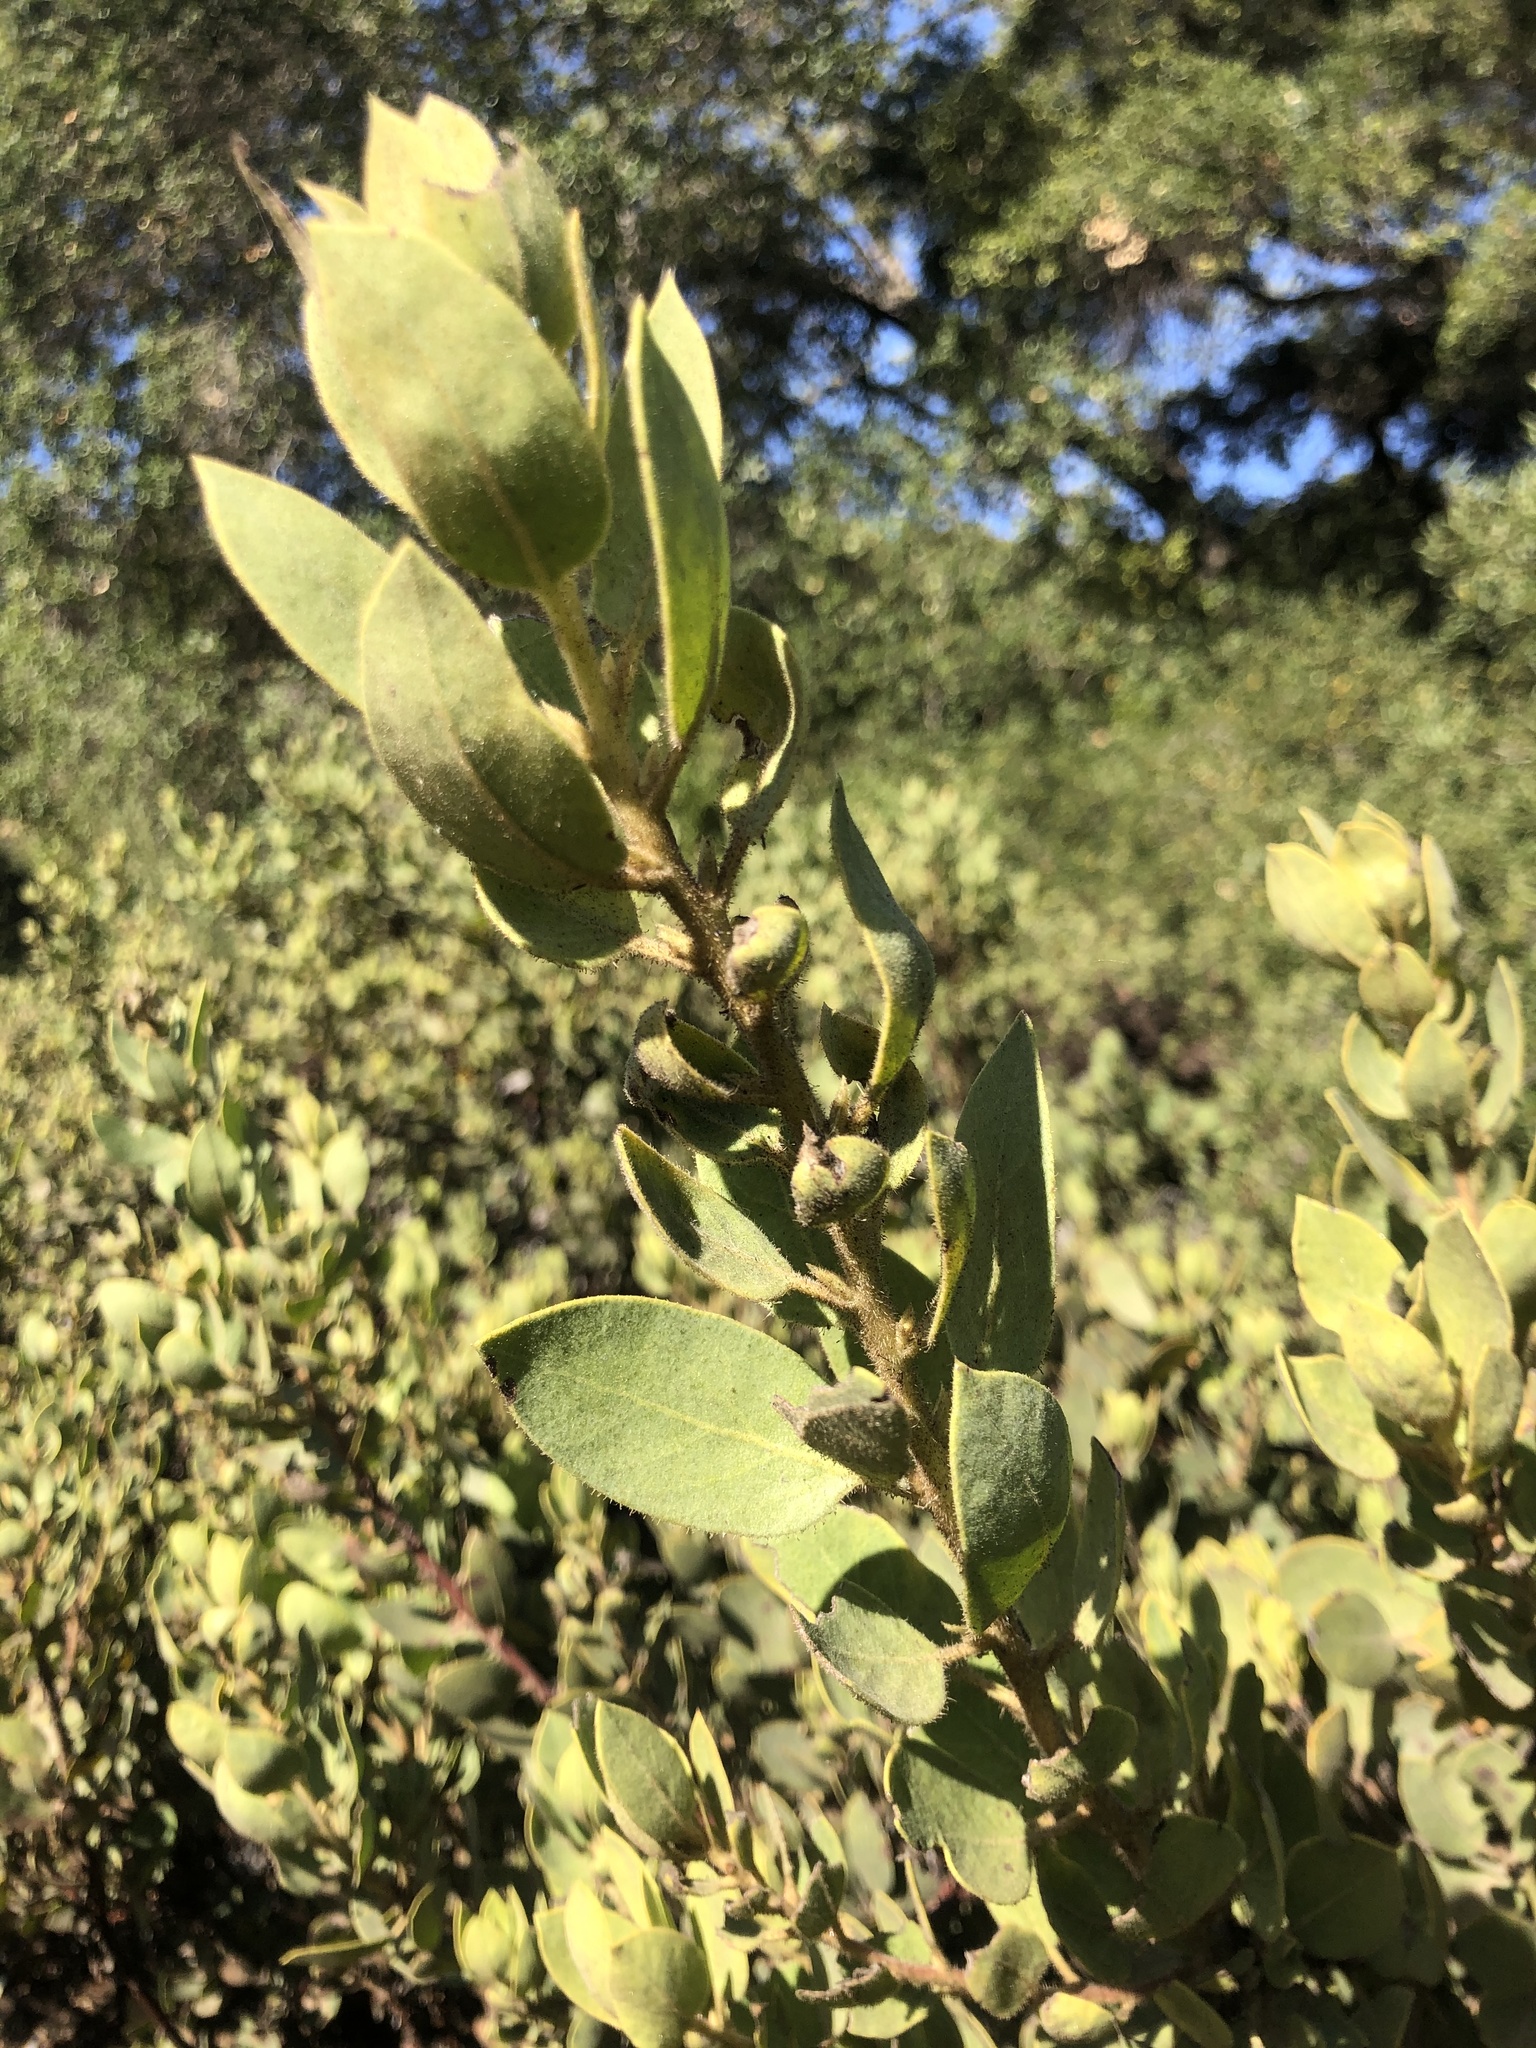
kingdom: Plantae
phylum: Tracheophyta
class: Magnoliopsida
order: Ericales
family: Ericaceae
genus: Arctostaphylos
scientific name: Arctostaphylos glandulosa
